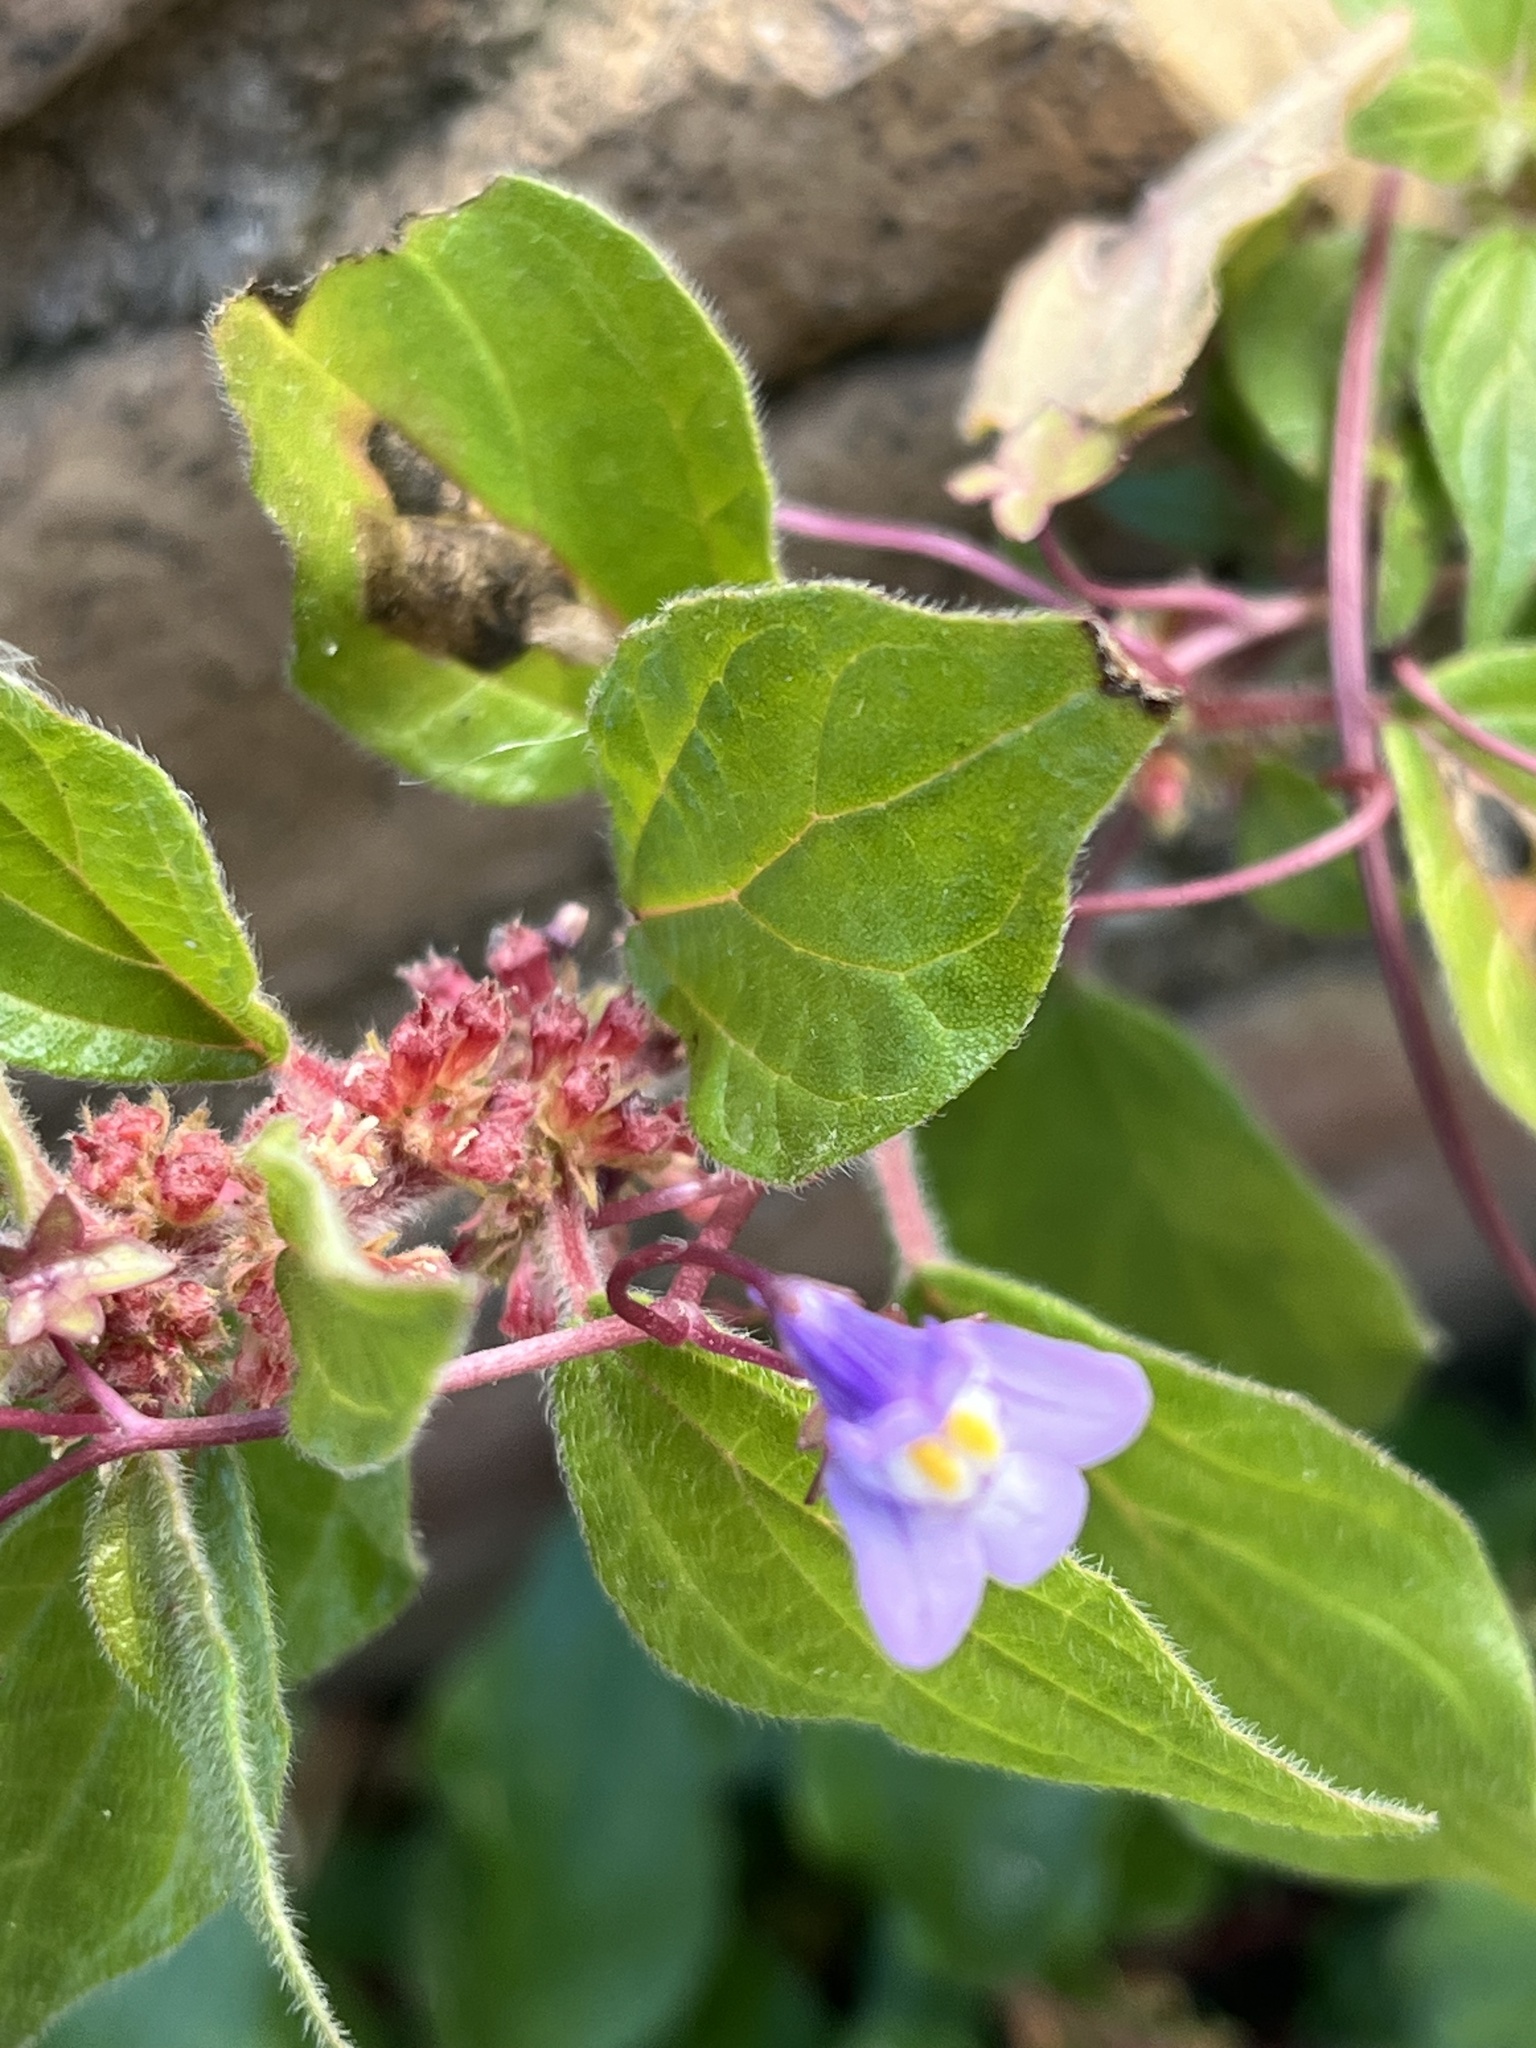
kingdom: Plantae
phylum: Tracheophyta
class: Magnoliopsida
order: Rosales
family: Urticaceae
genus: Parietaria
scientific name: Parietaria judaica
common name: Pellitory-of-the-wall
